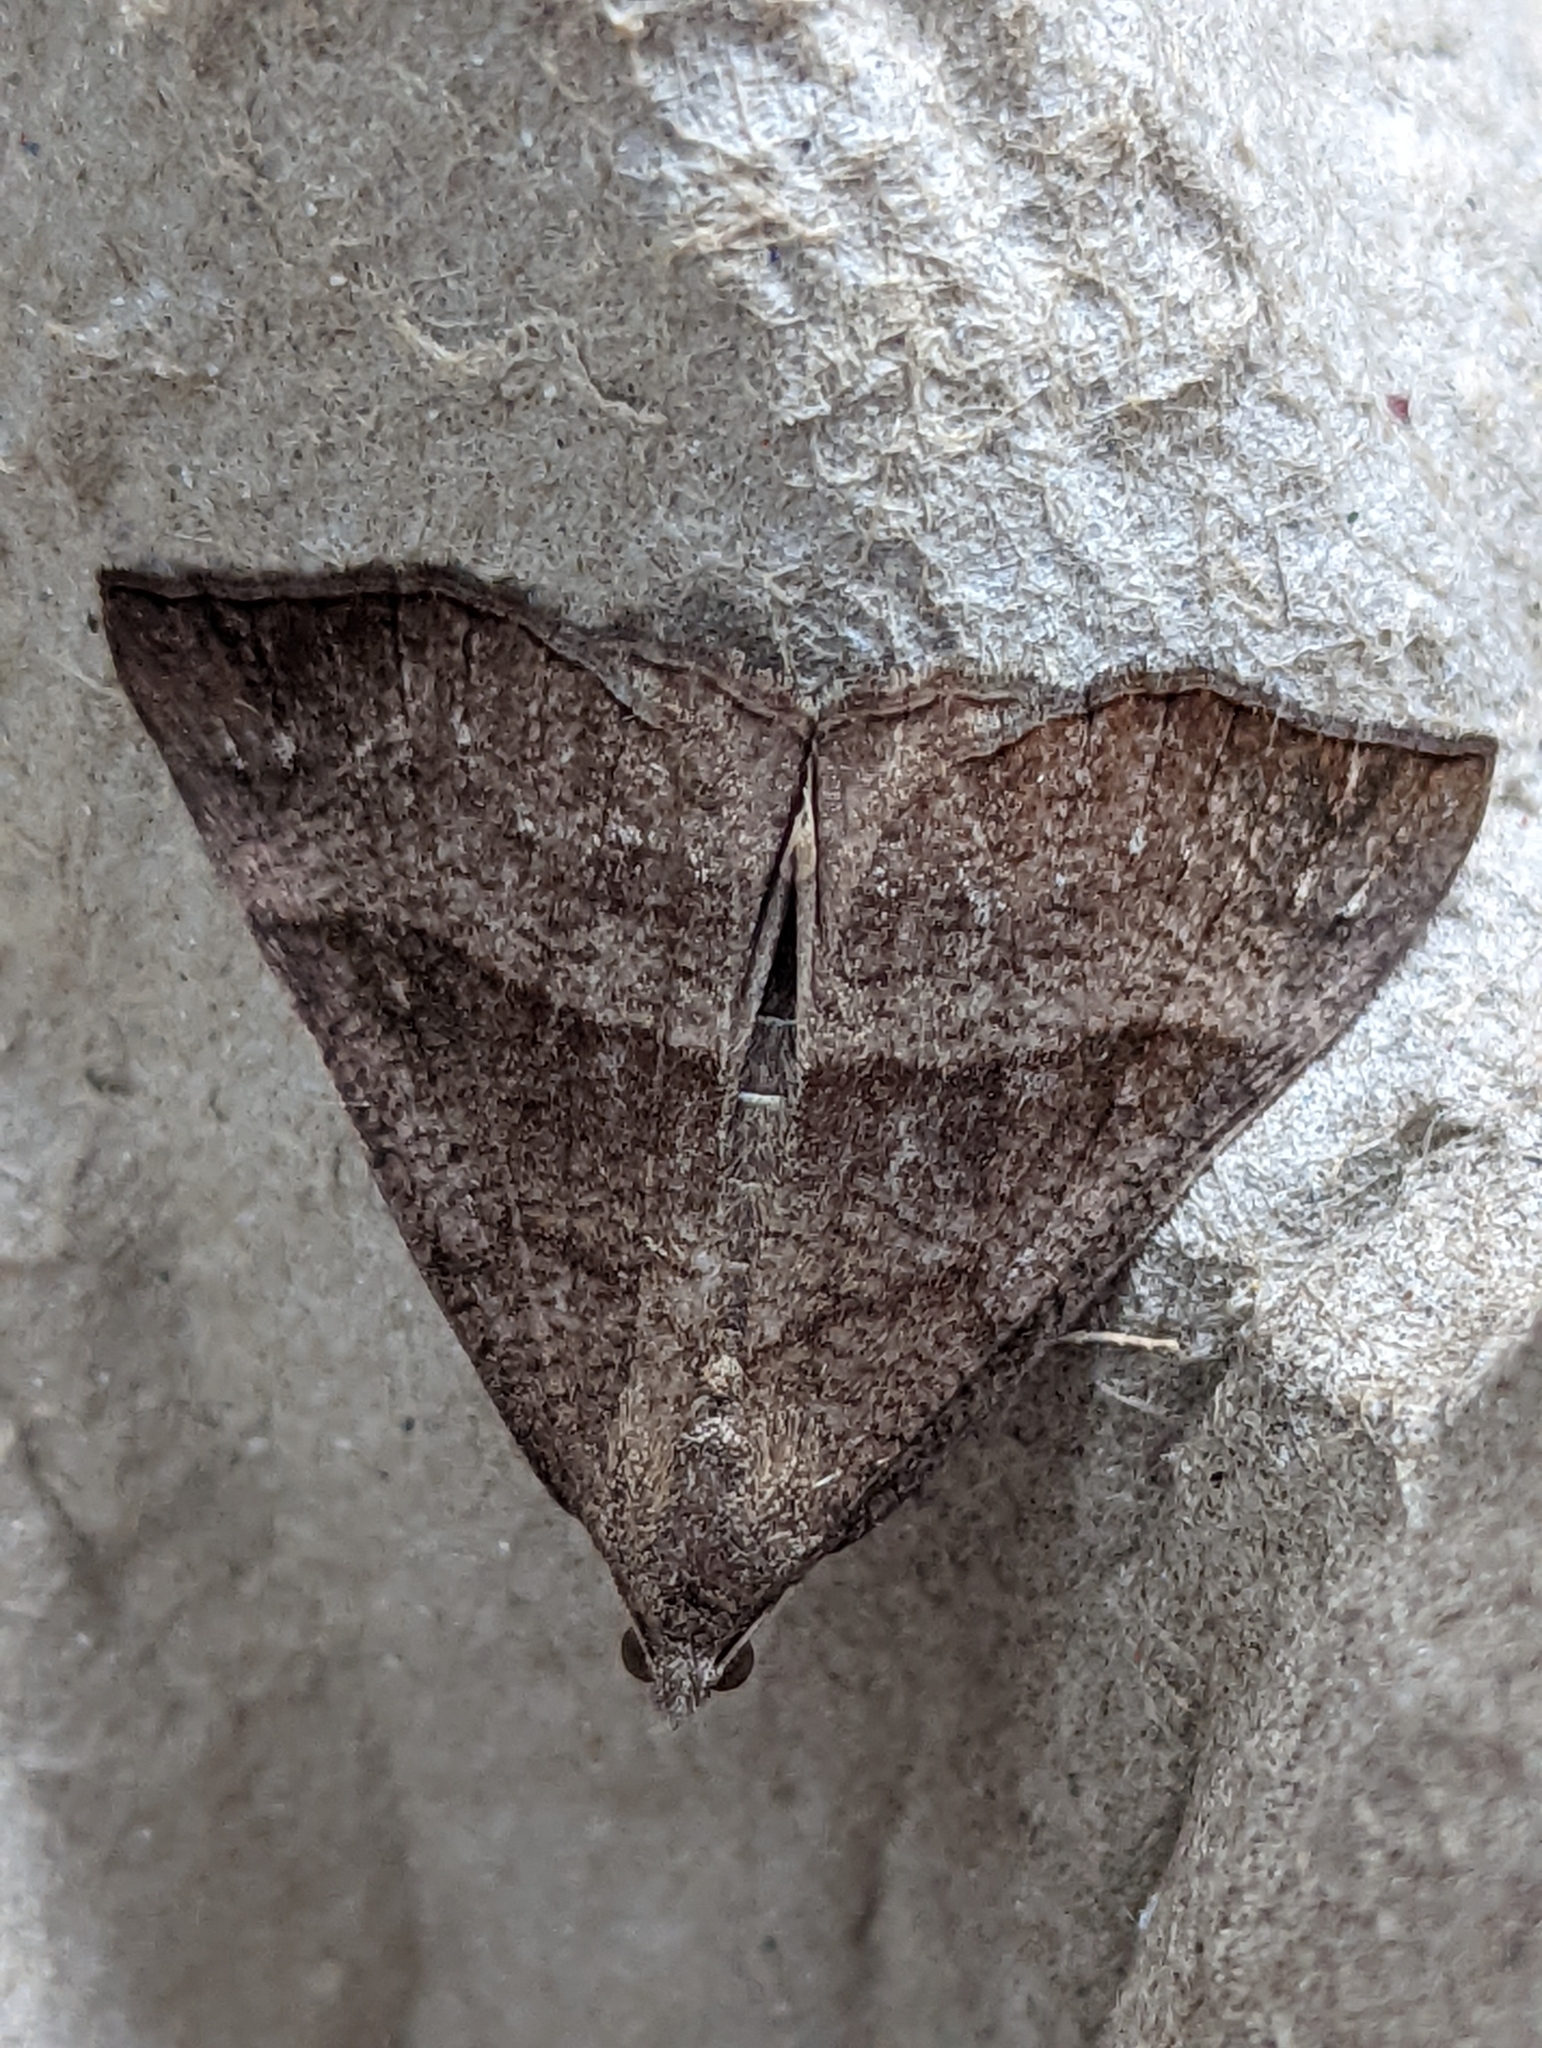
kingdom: Animalia
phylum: Arthropoda
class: Insecta
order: Lepidoptera
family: Erebidae
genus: Hypena
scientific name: Hypena proboscidalis
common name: Snout
